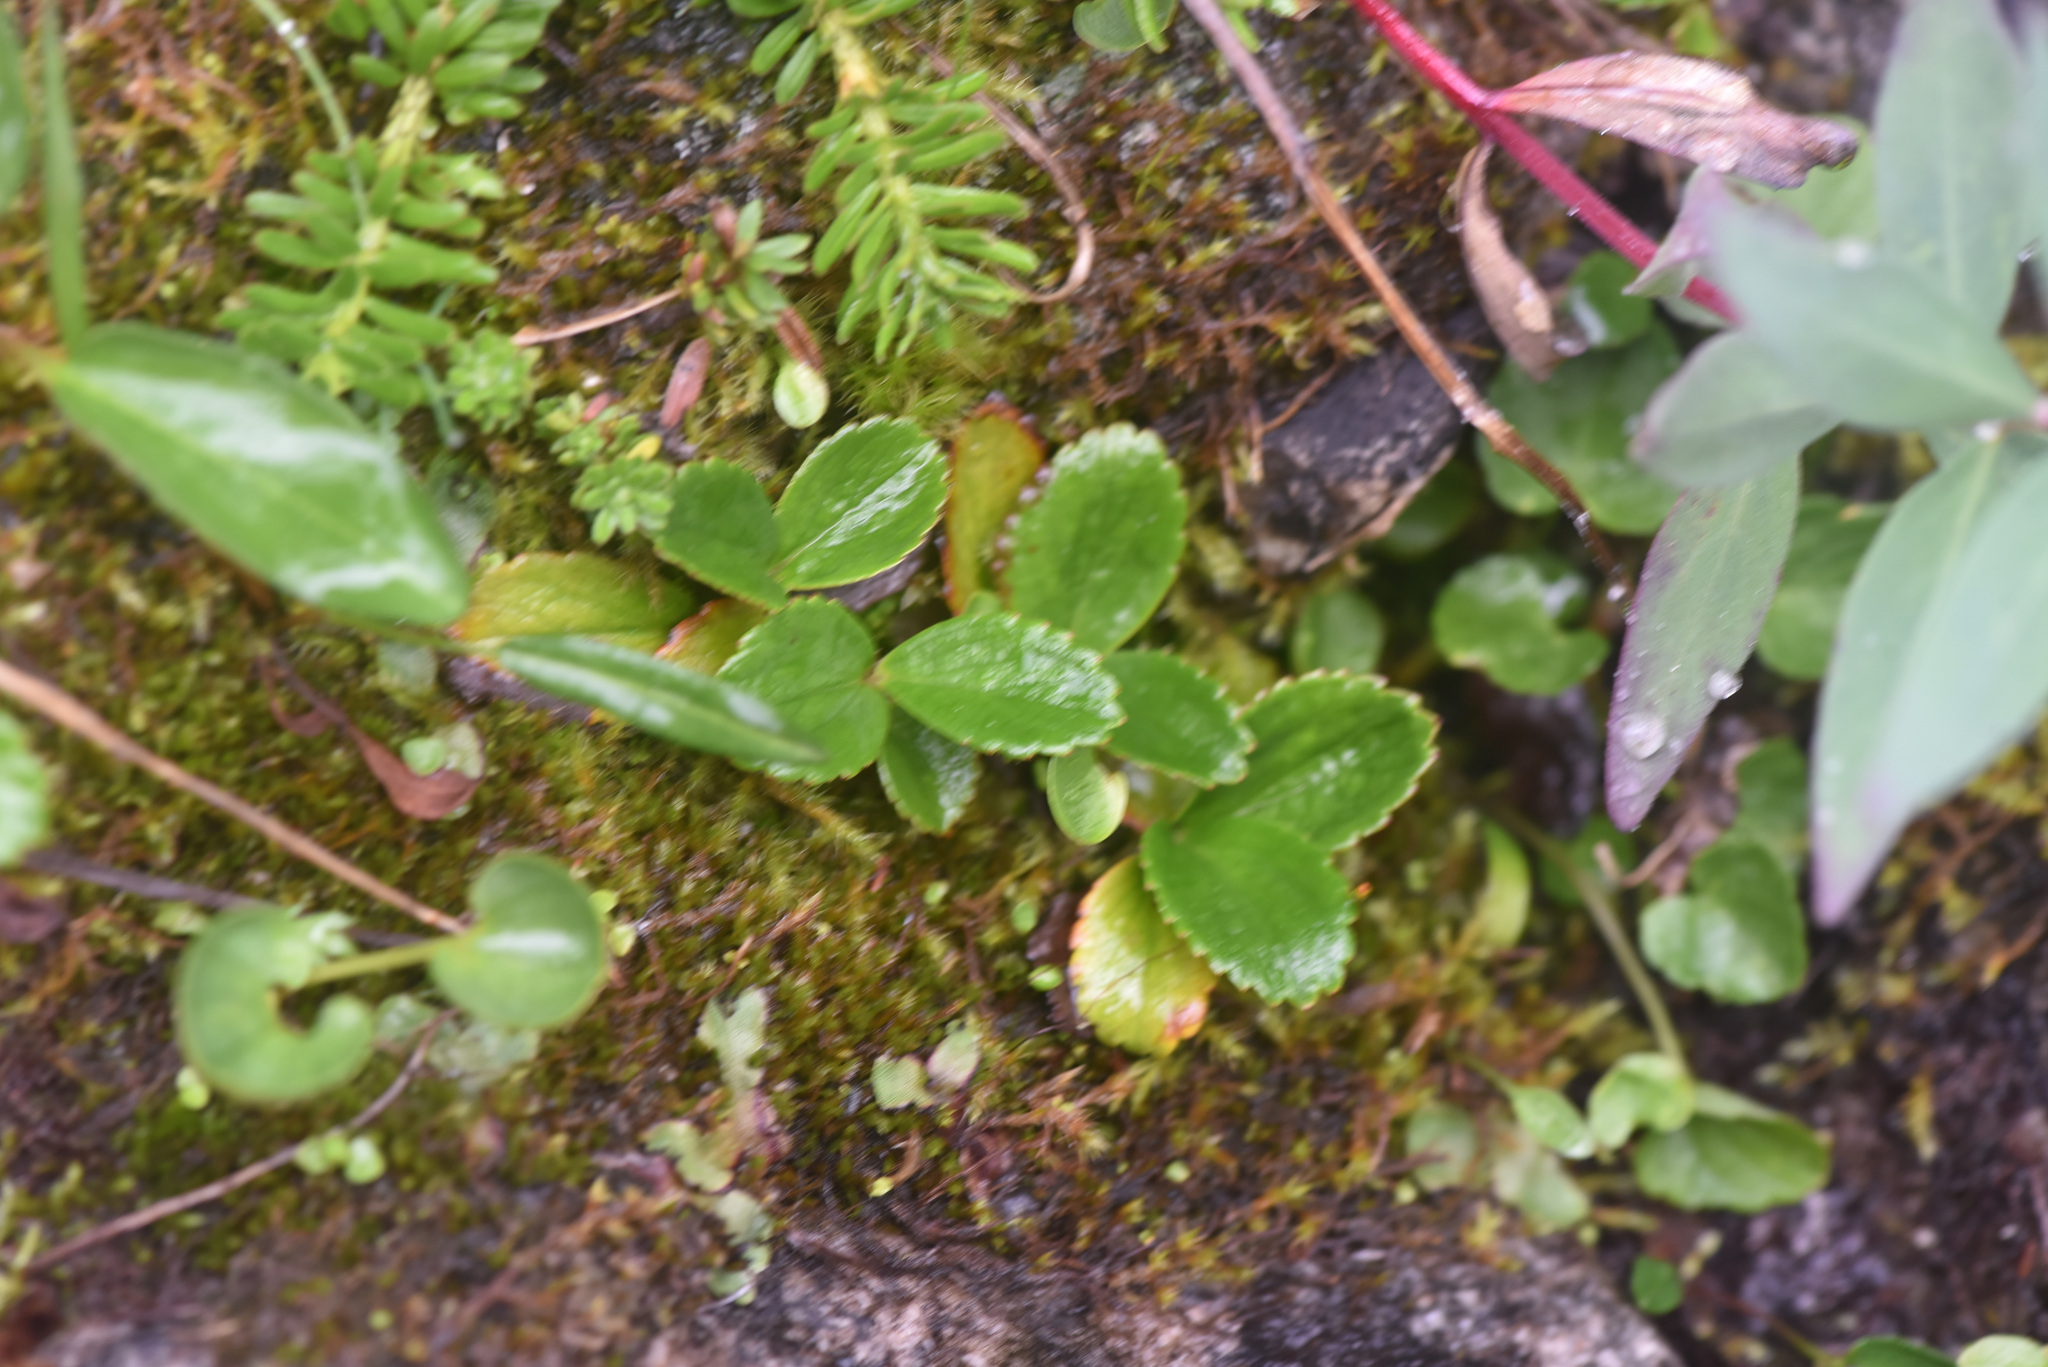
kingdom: Plantae
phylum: Tracheophyta
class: Magnoliopsida
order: Saxifragales
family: Saxifragaceae
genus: Leptarrhena
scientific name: Leptarrhena pyrolifolia
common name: Leatherleaf-saxifrage
